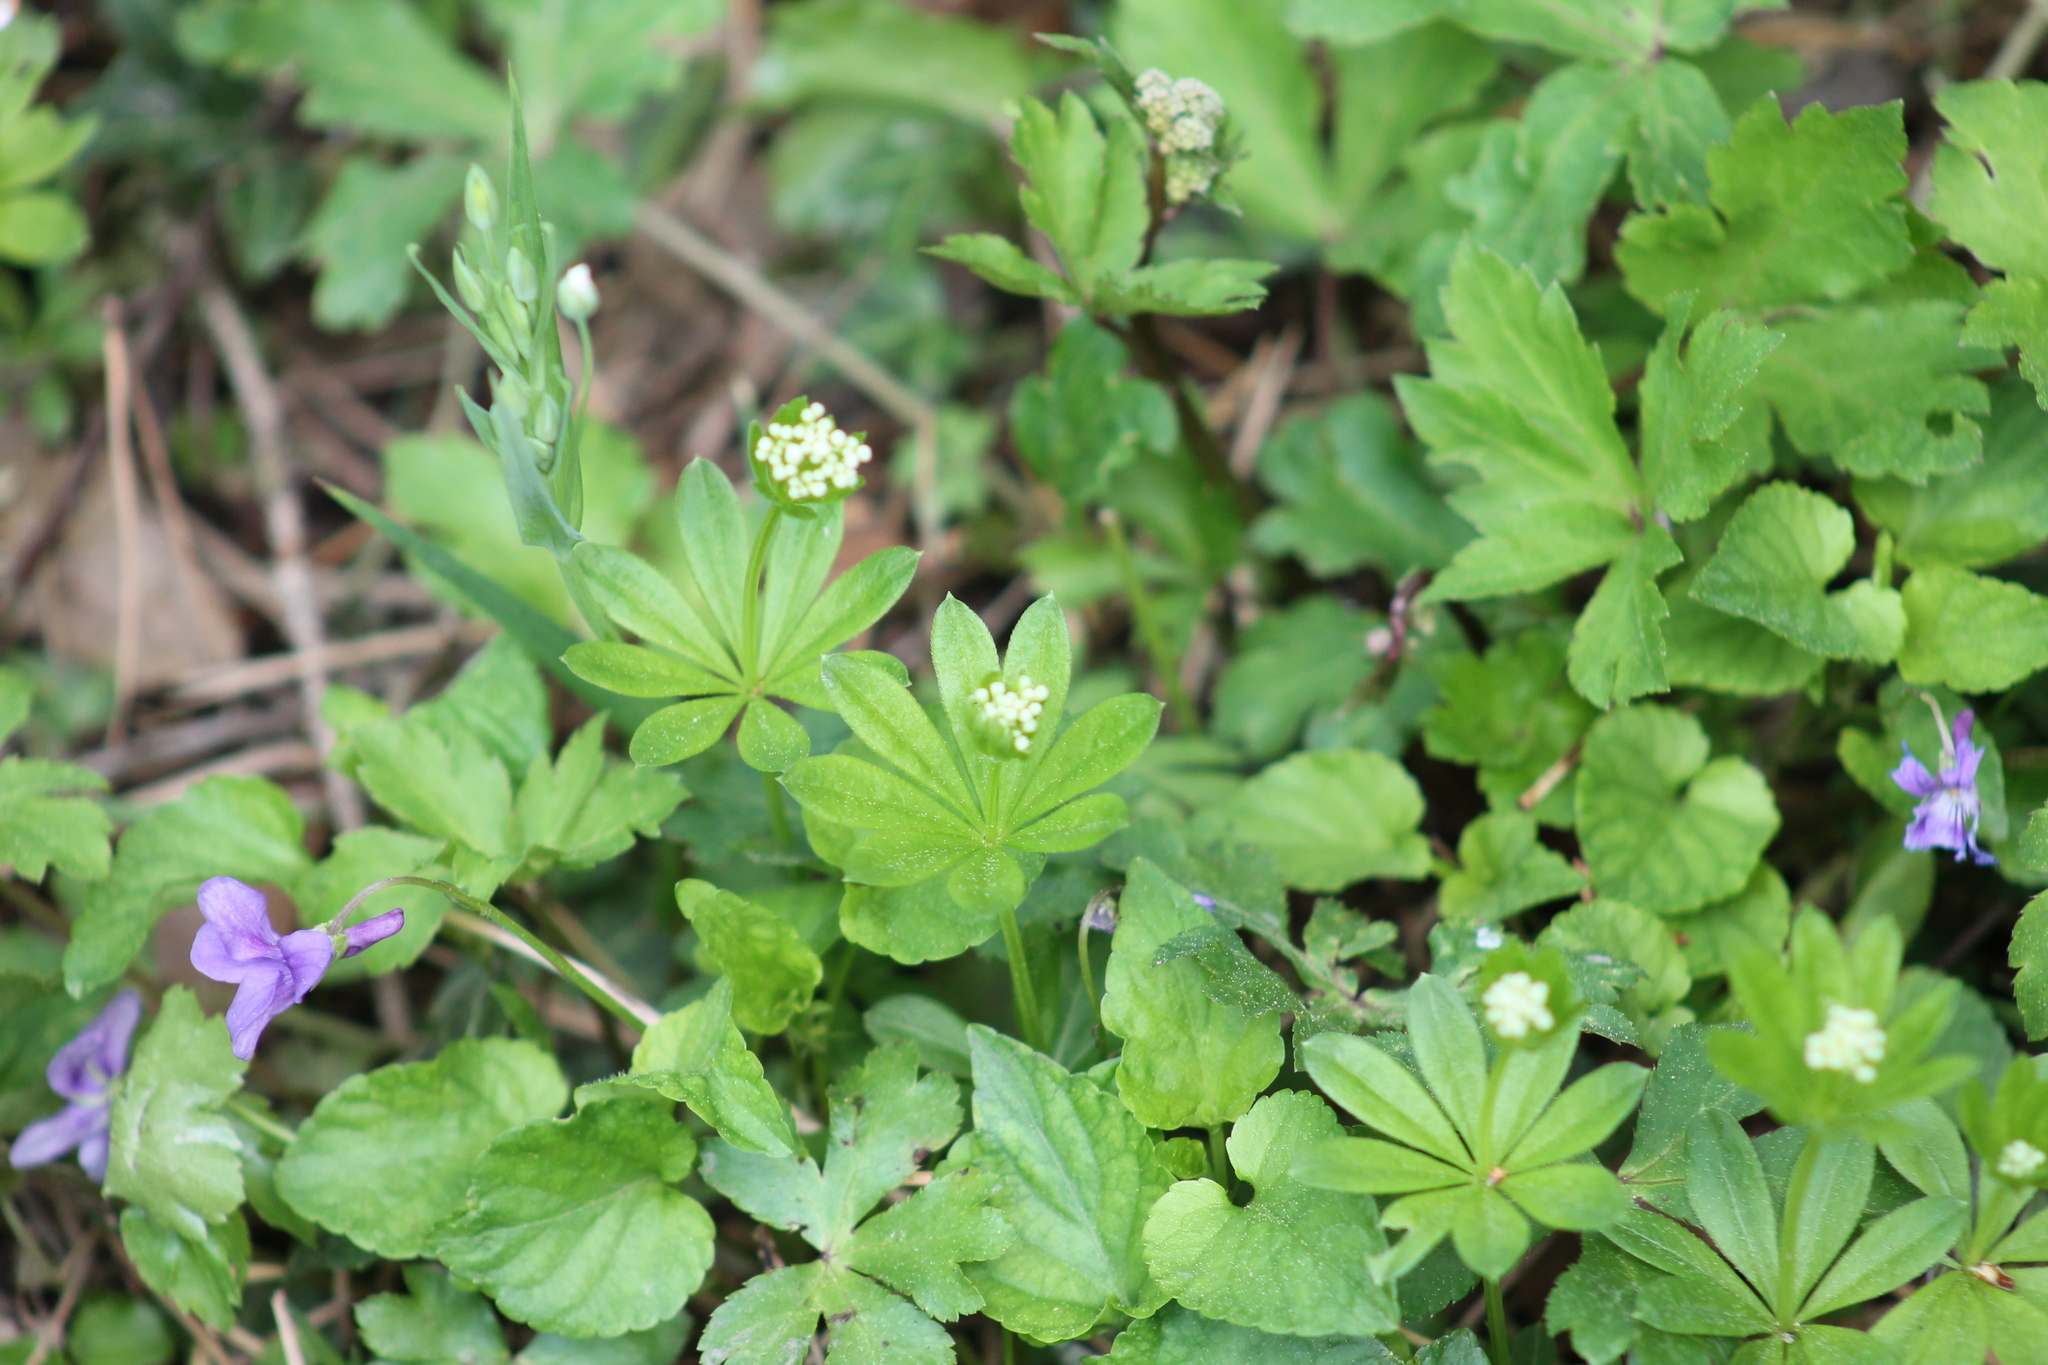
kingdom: Plantae
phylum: Tracheophyta
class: Magnoliopsida
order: Gentianales
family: Rubiaceae
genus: Galium
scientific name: Galium odoratum
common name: Sweet woodruff
